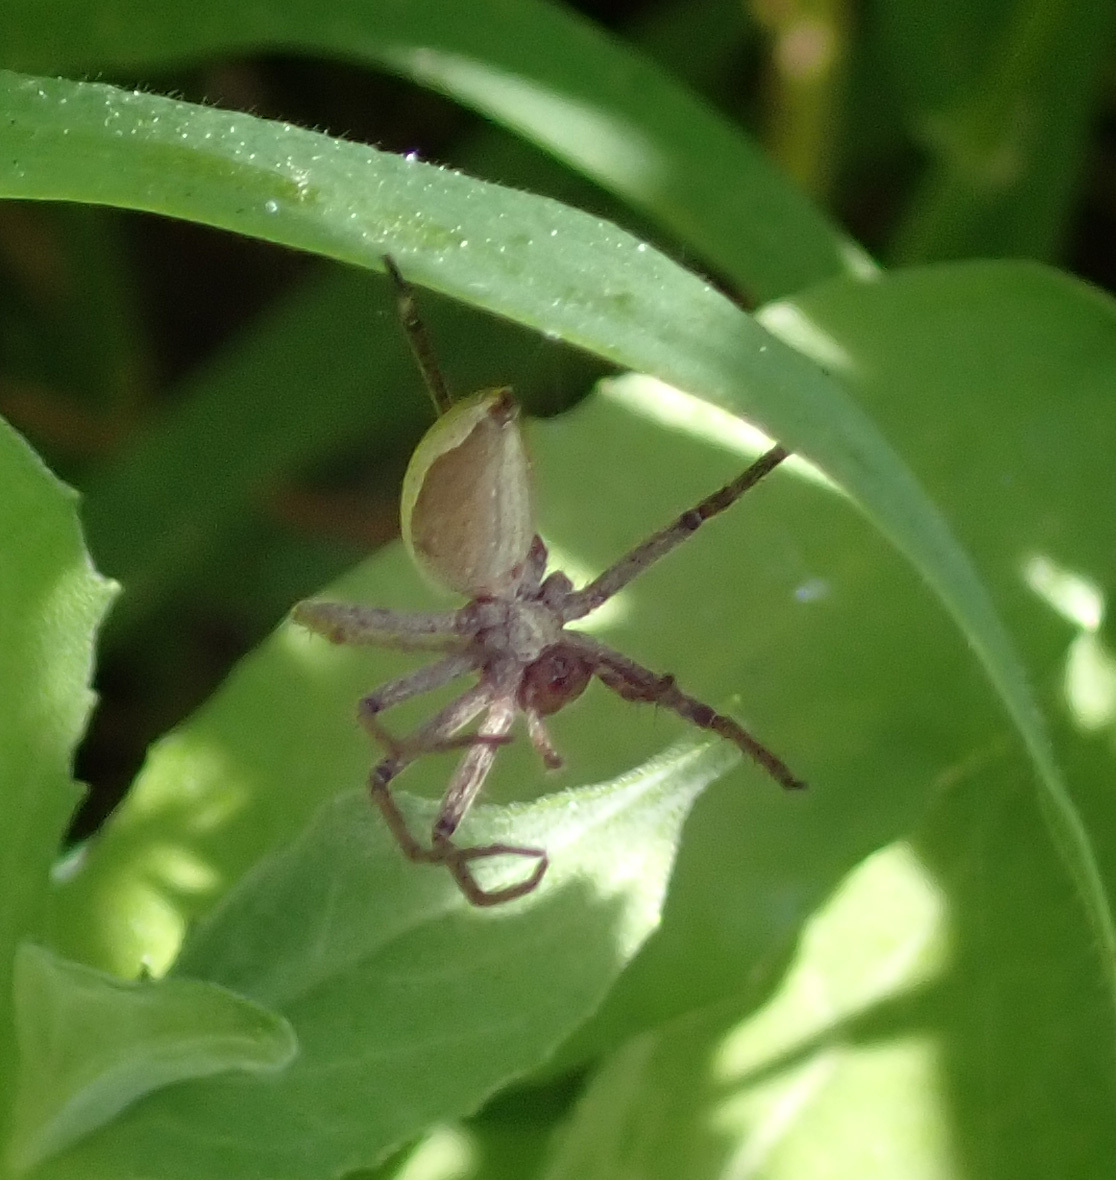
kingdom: Animalia
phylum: Arthropoda
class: Arachnida
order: Araneae
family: Pisauridae
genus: Pisaura
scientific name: Pisaura mirabilis
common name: Tent spider
